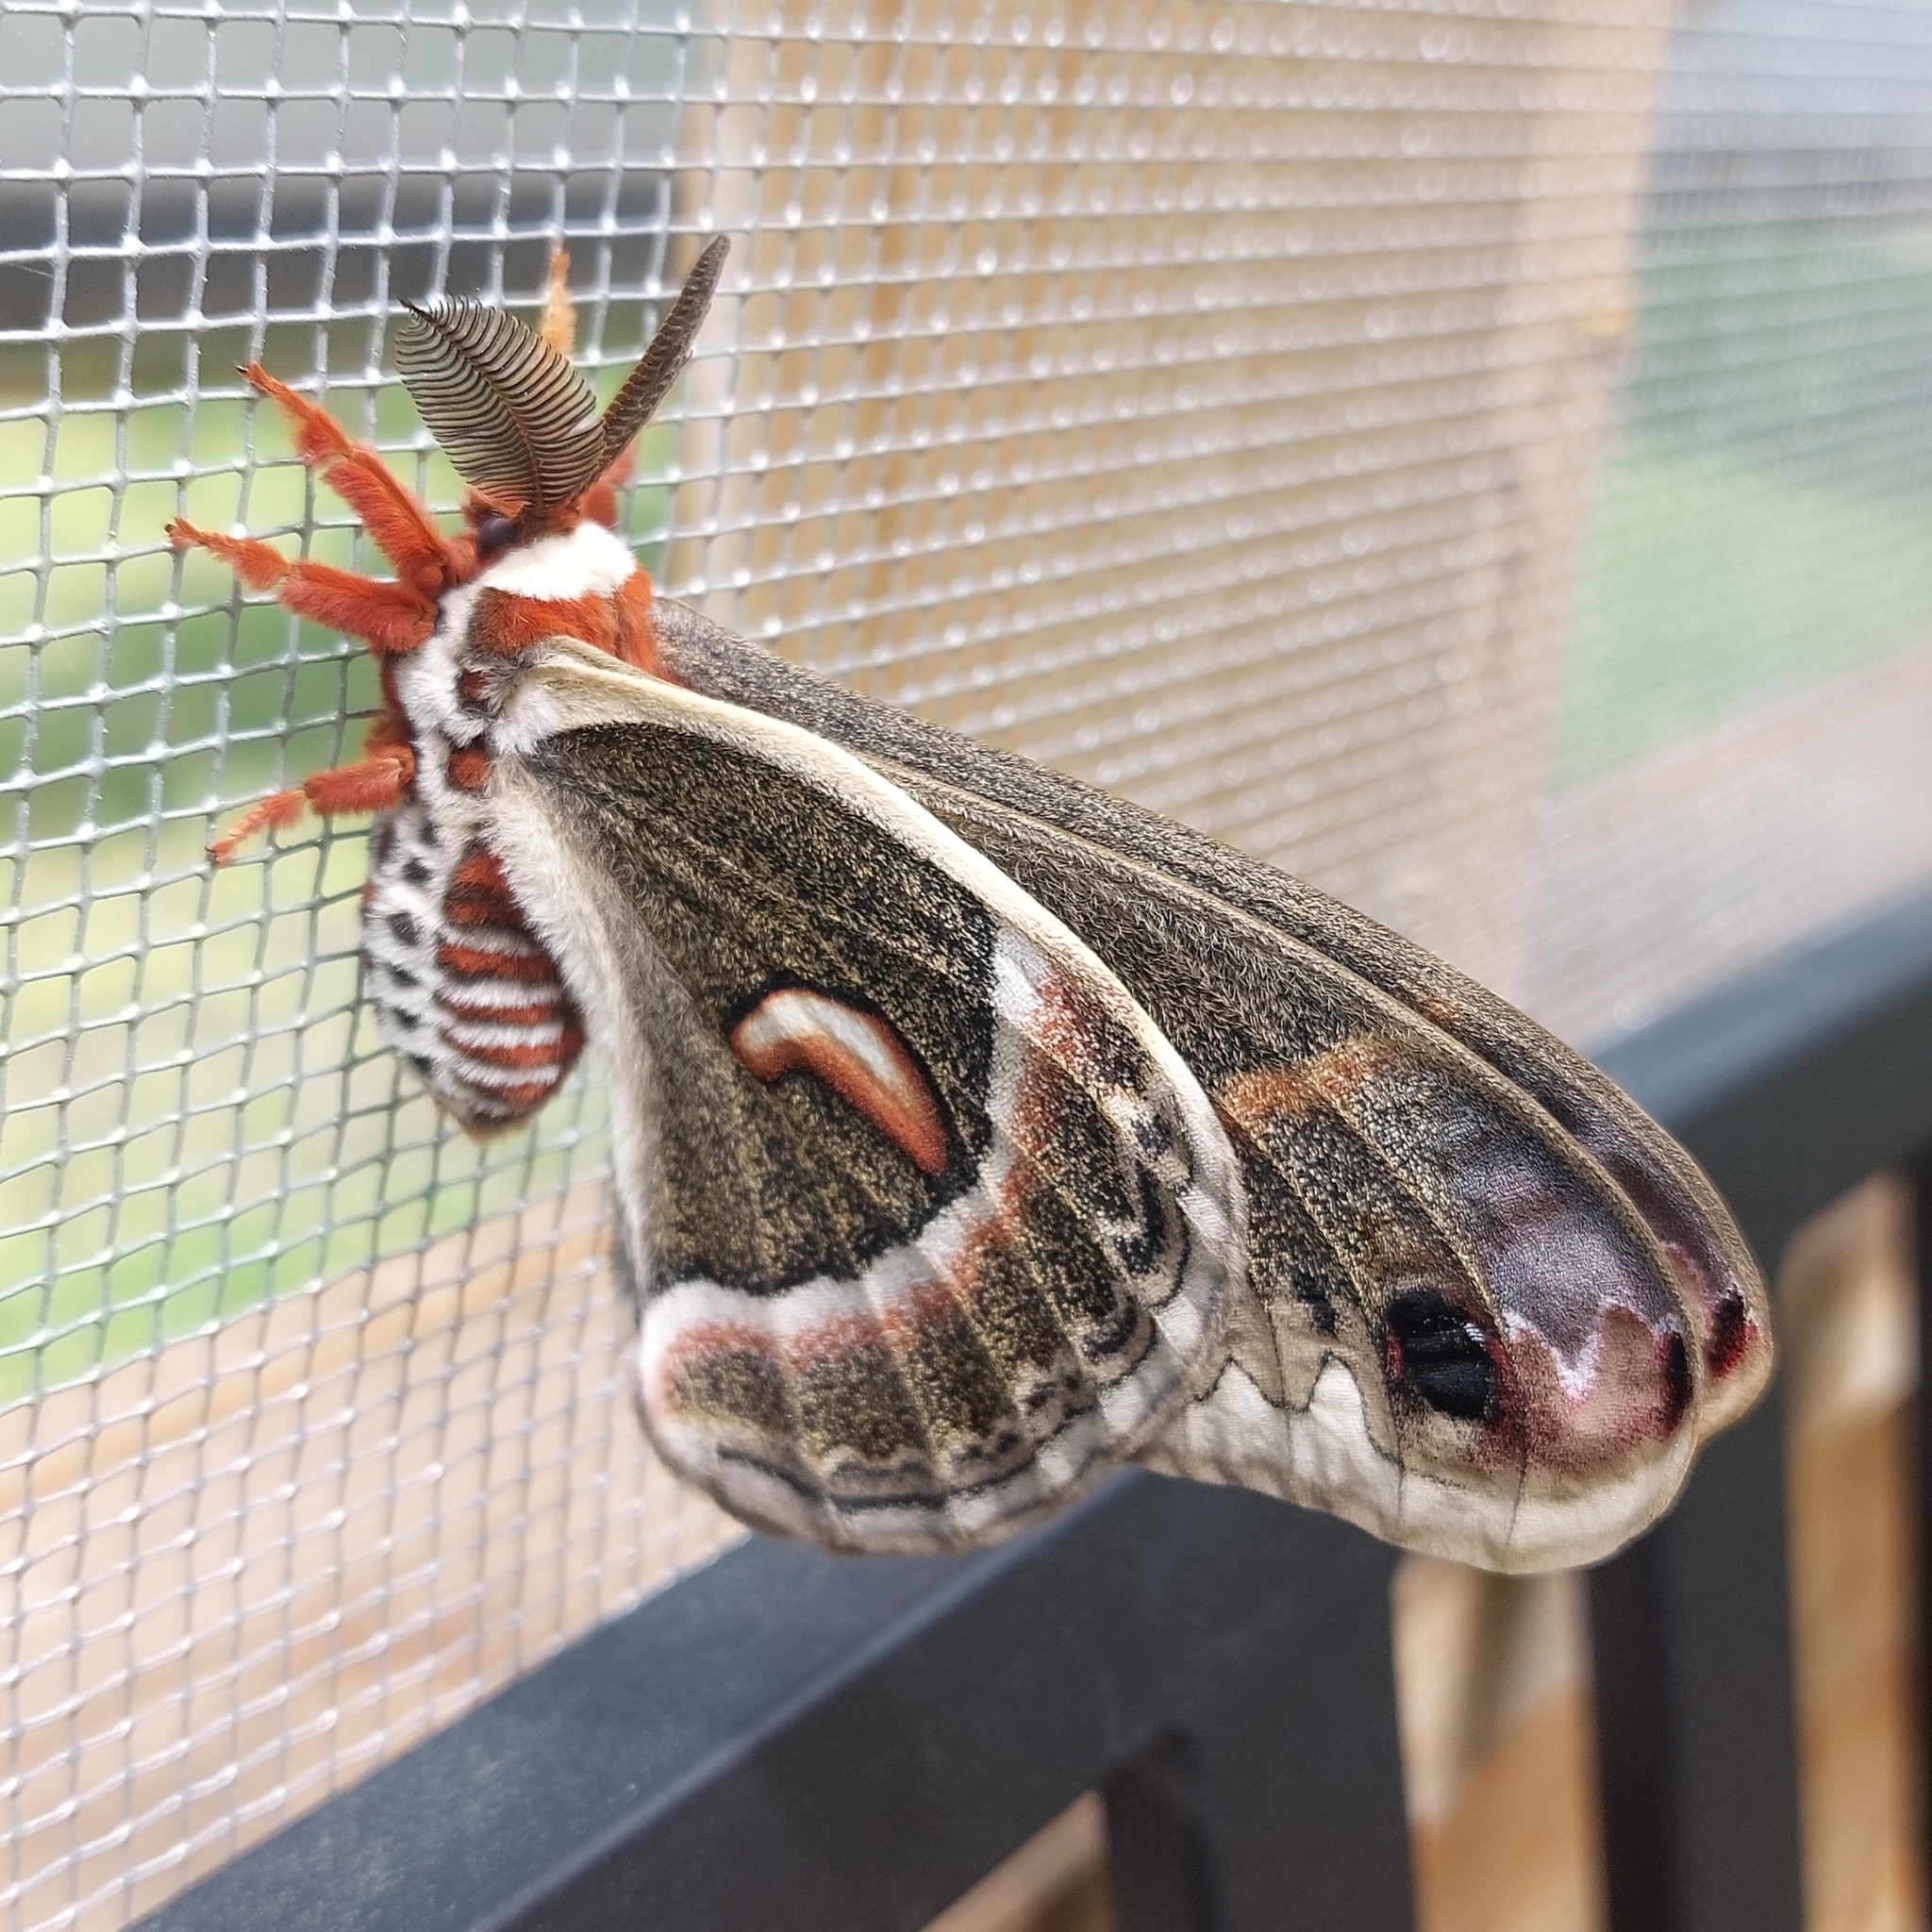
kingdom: Animalia
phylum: Arthropoda
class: Insecta
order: Lepidoptera
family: Saturniidae
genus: Hyalophora
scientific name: Hyalophora cecropia
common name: Cecropia silkmoth
